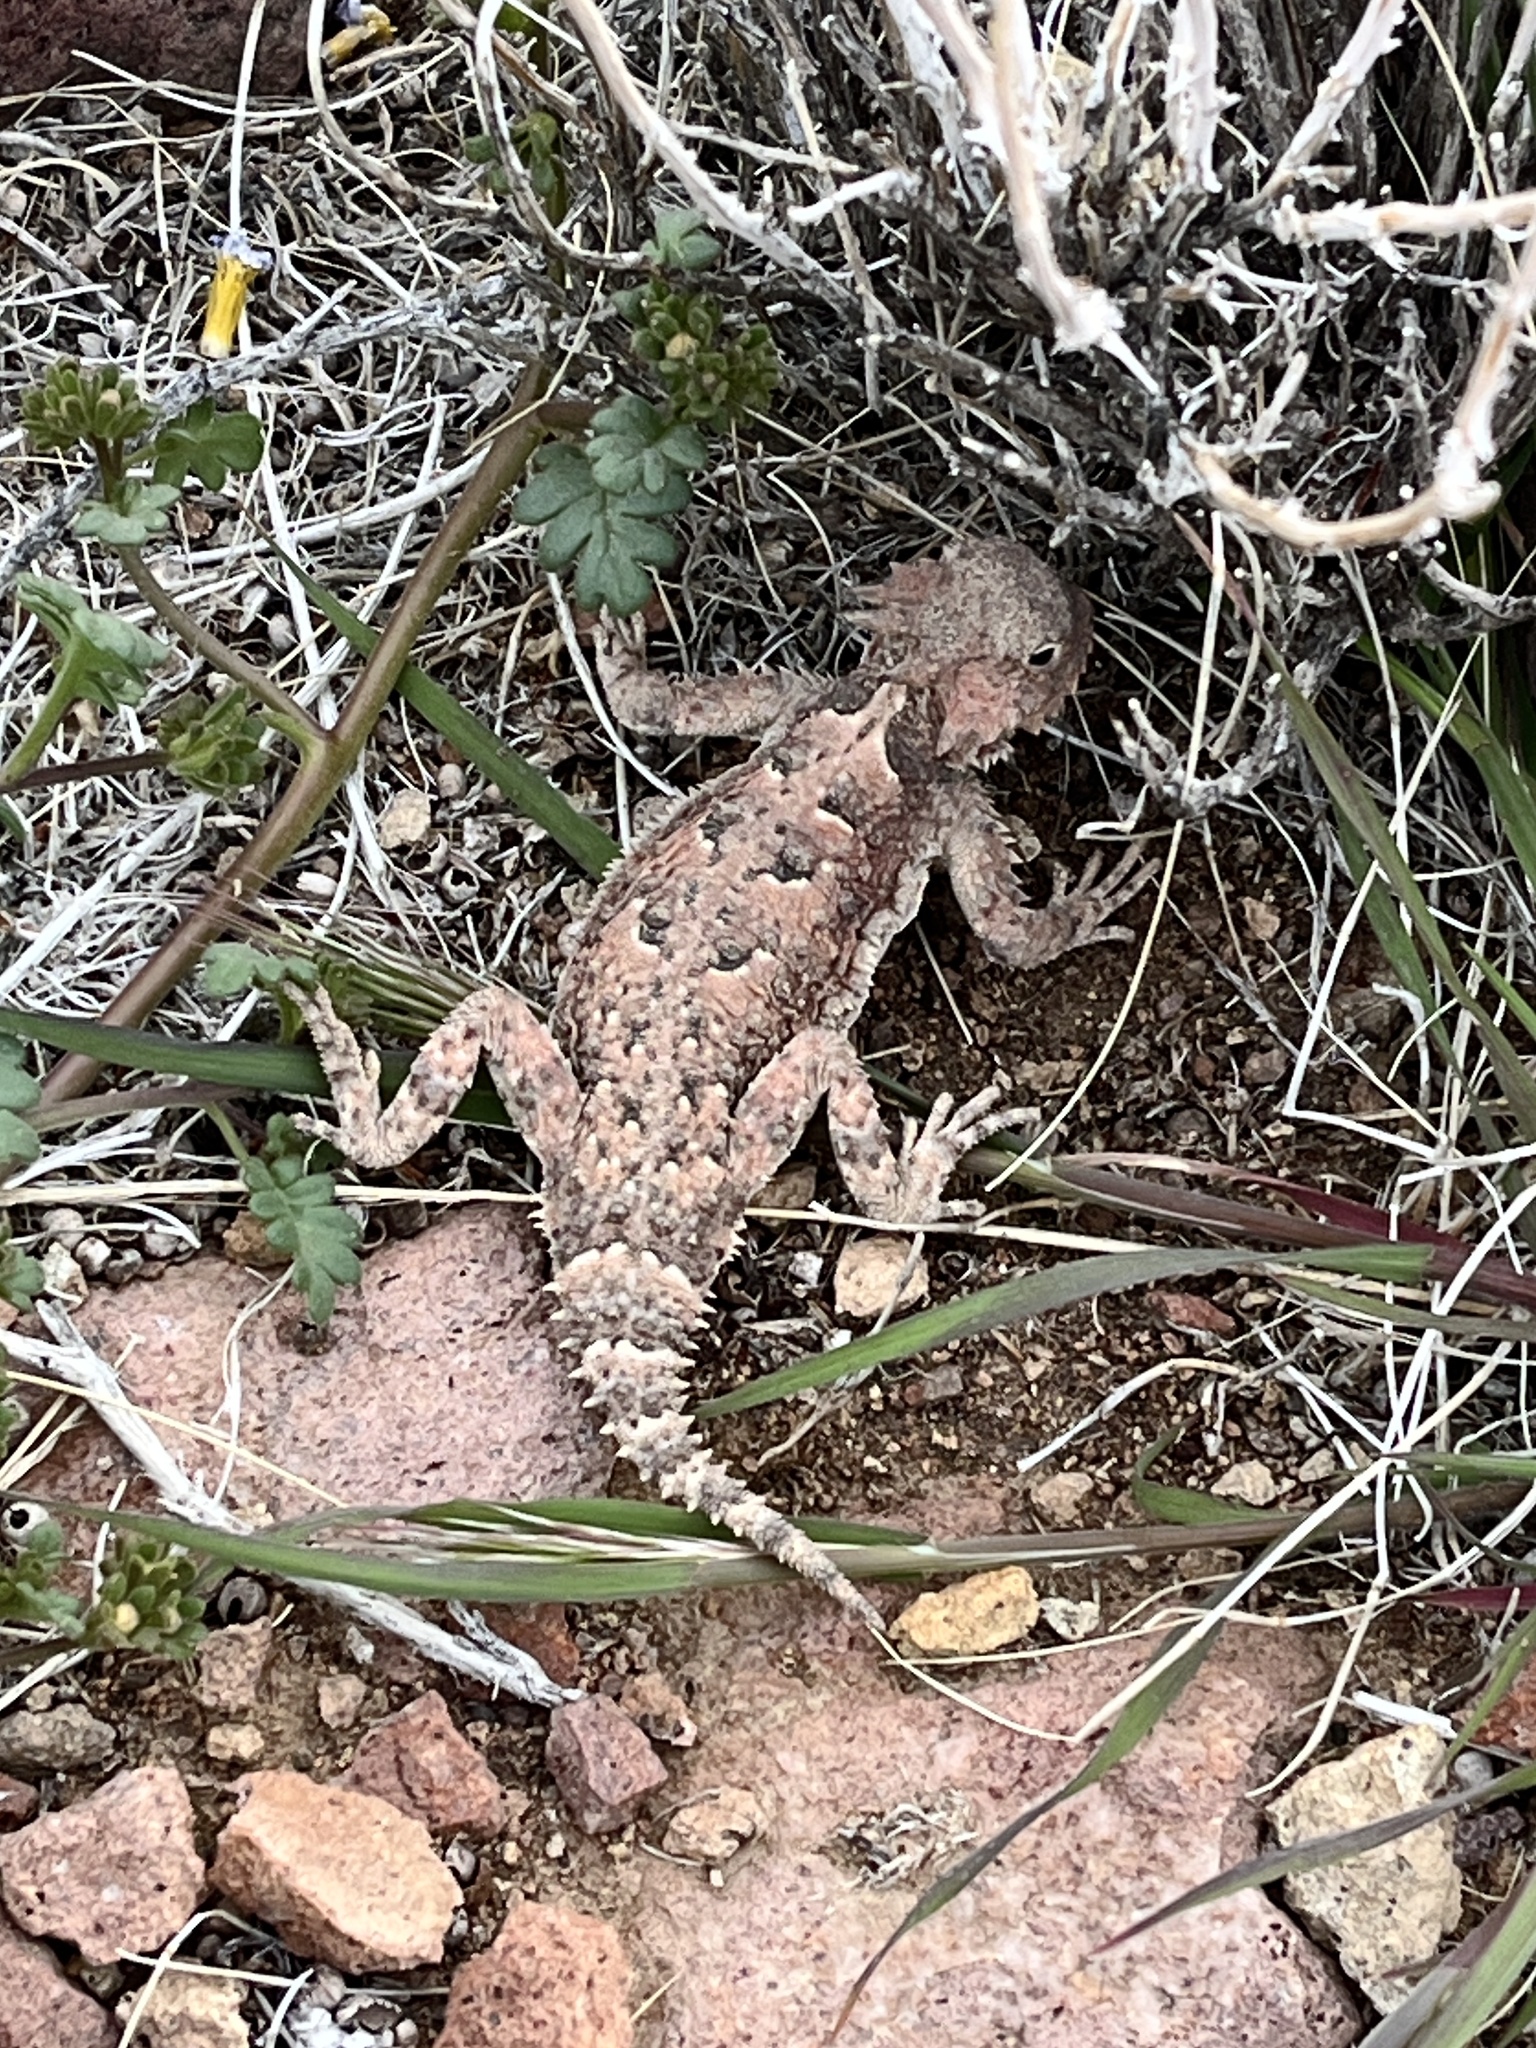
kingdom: Animalia
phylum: Chordata
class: Squamata
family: Phrynosomatidae
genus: Phrynosoma
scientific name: Phrynosoma platyrhinos
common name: Desert horned lizard
